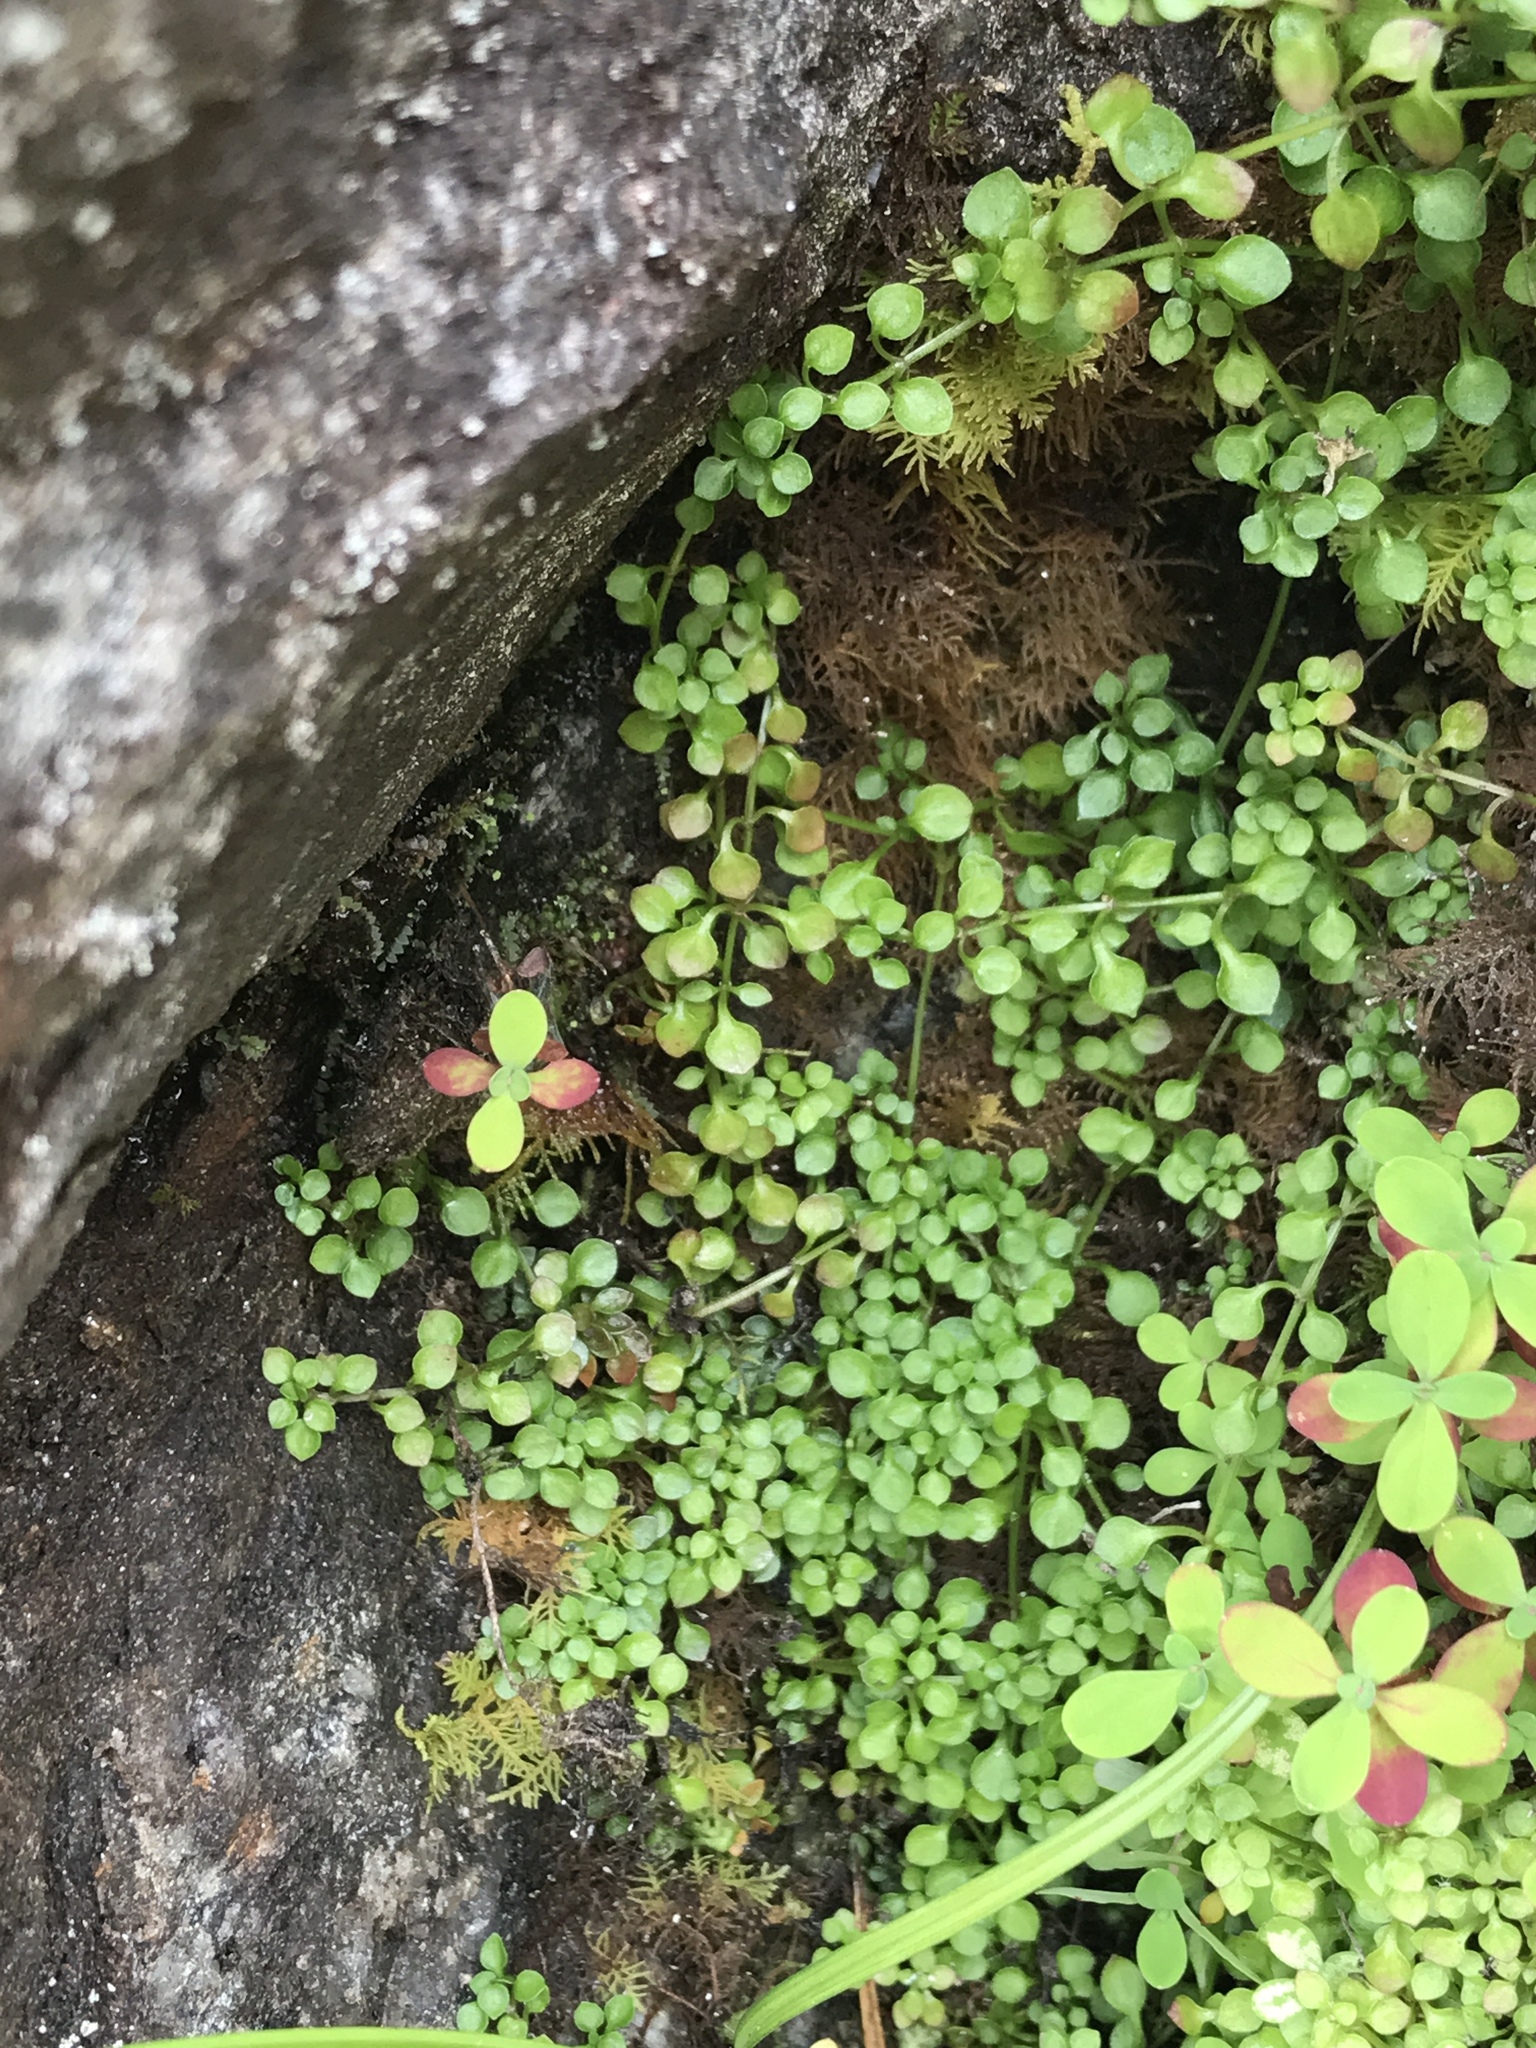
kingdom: Plantae
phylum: Tracheophyta
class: Magnoliopsida
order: Gentianales
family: Rubiaceae
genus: Houstonia
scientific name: Houstonia serpyllifolia
